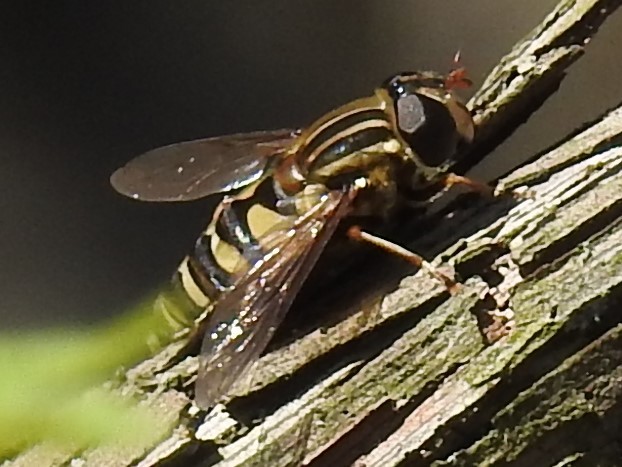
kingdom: Animalia
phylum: Arthropoda
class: Insecta
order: Diptera
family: Syrphidae
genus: Helophilus
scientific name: Helophilus fasciatus
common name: Narrow-headed marsh fly
